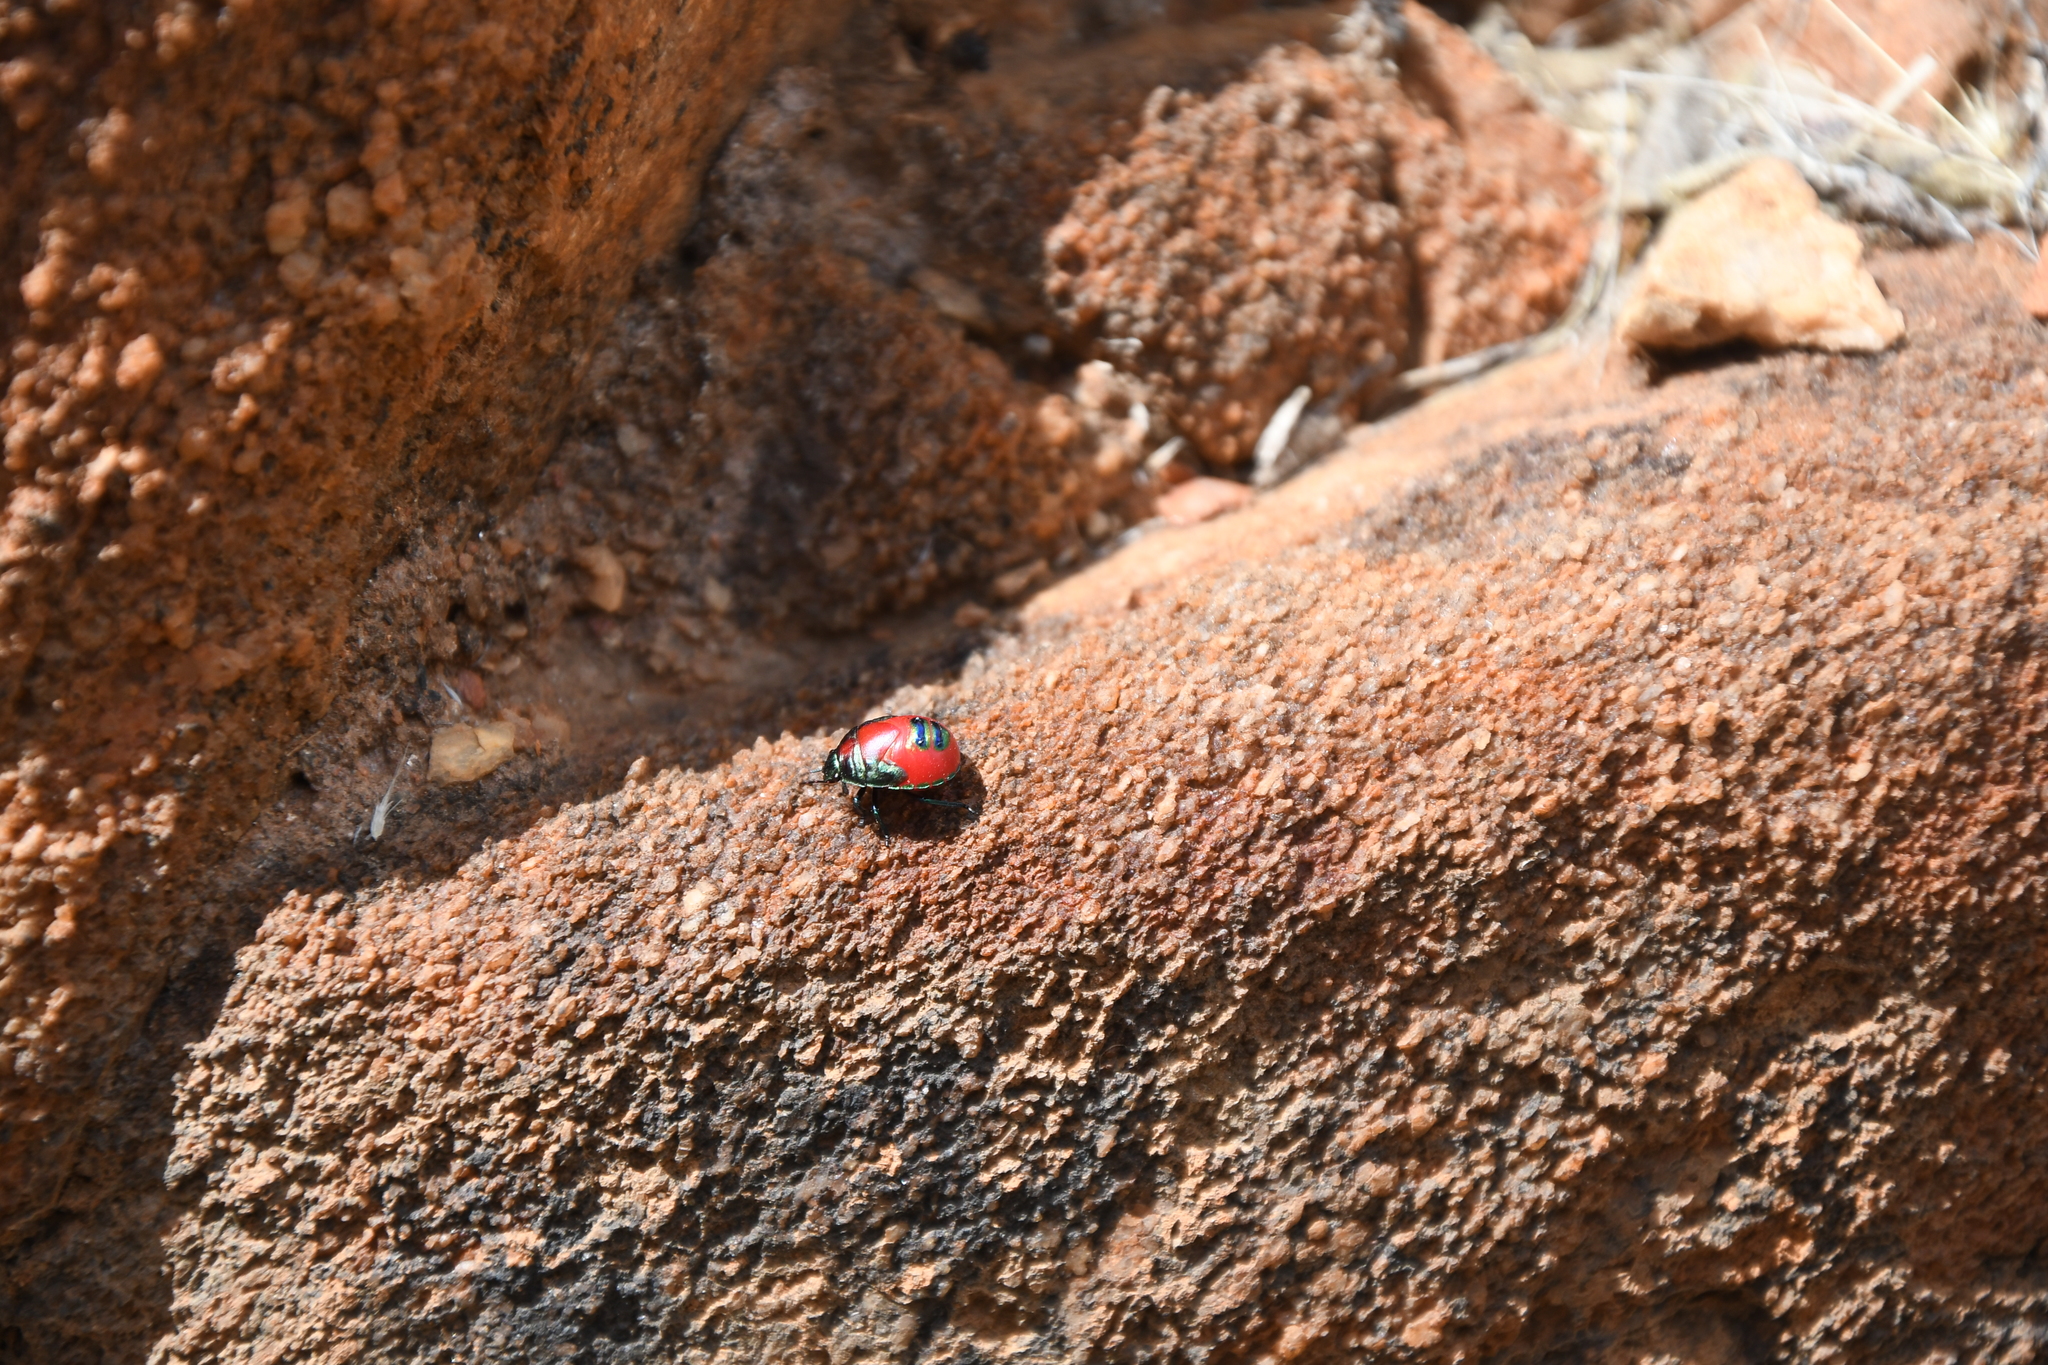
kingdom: Animalia
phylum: Arthropoda
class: Insecta
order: Hemiptera
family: Scutelleridae
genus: Choerocoris
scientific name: Choerocoris paganus
